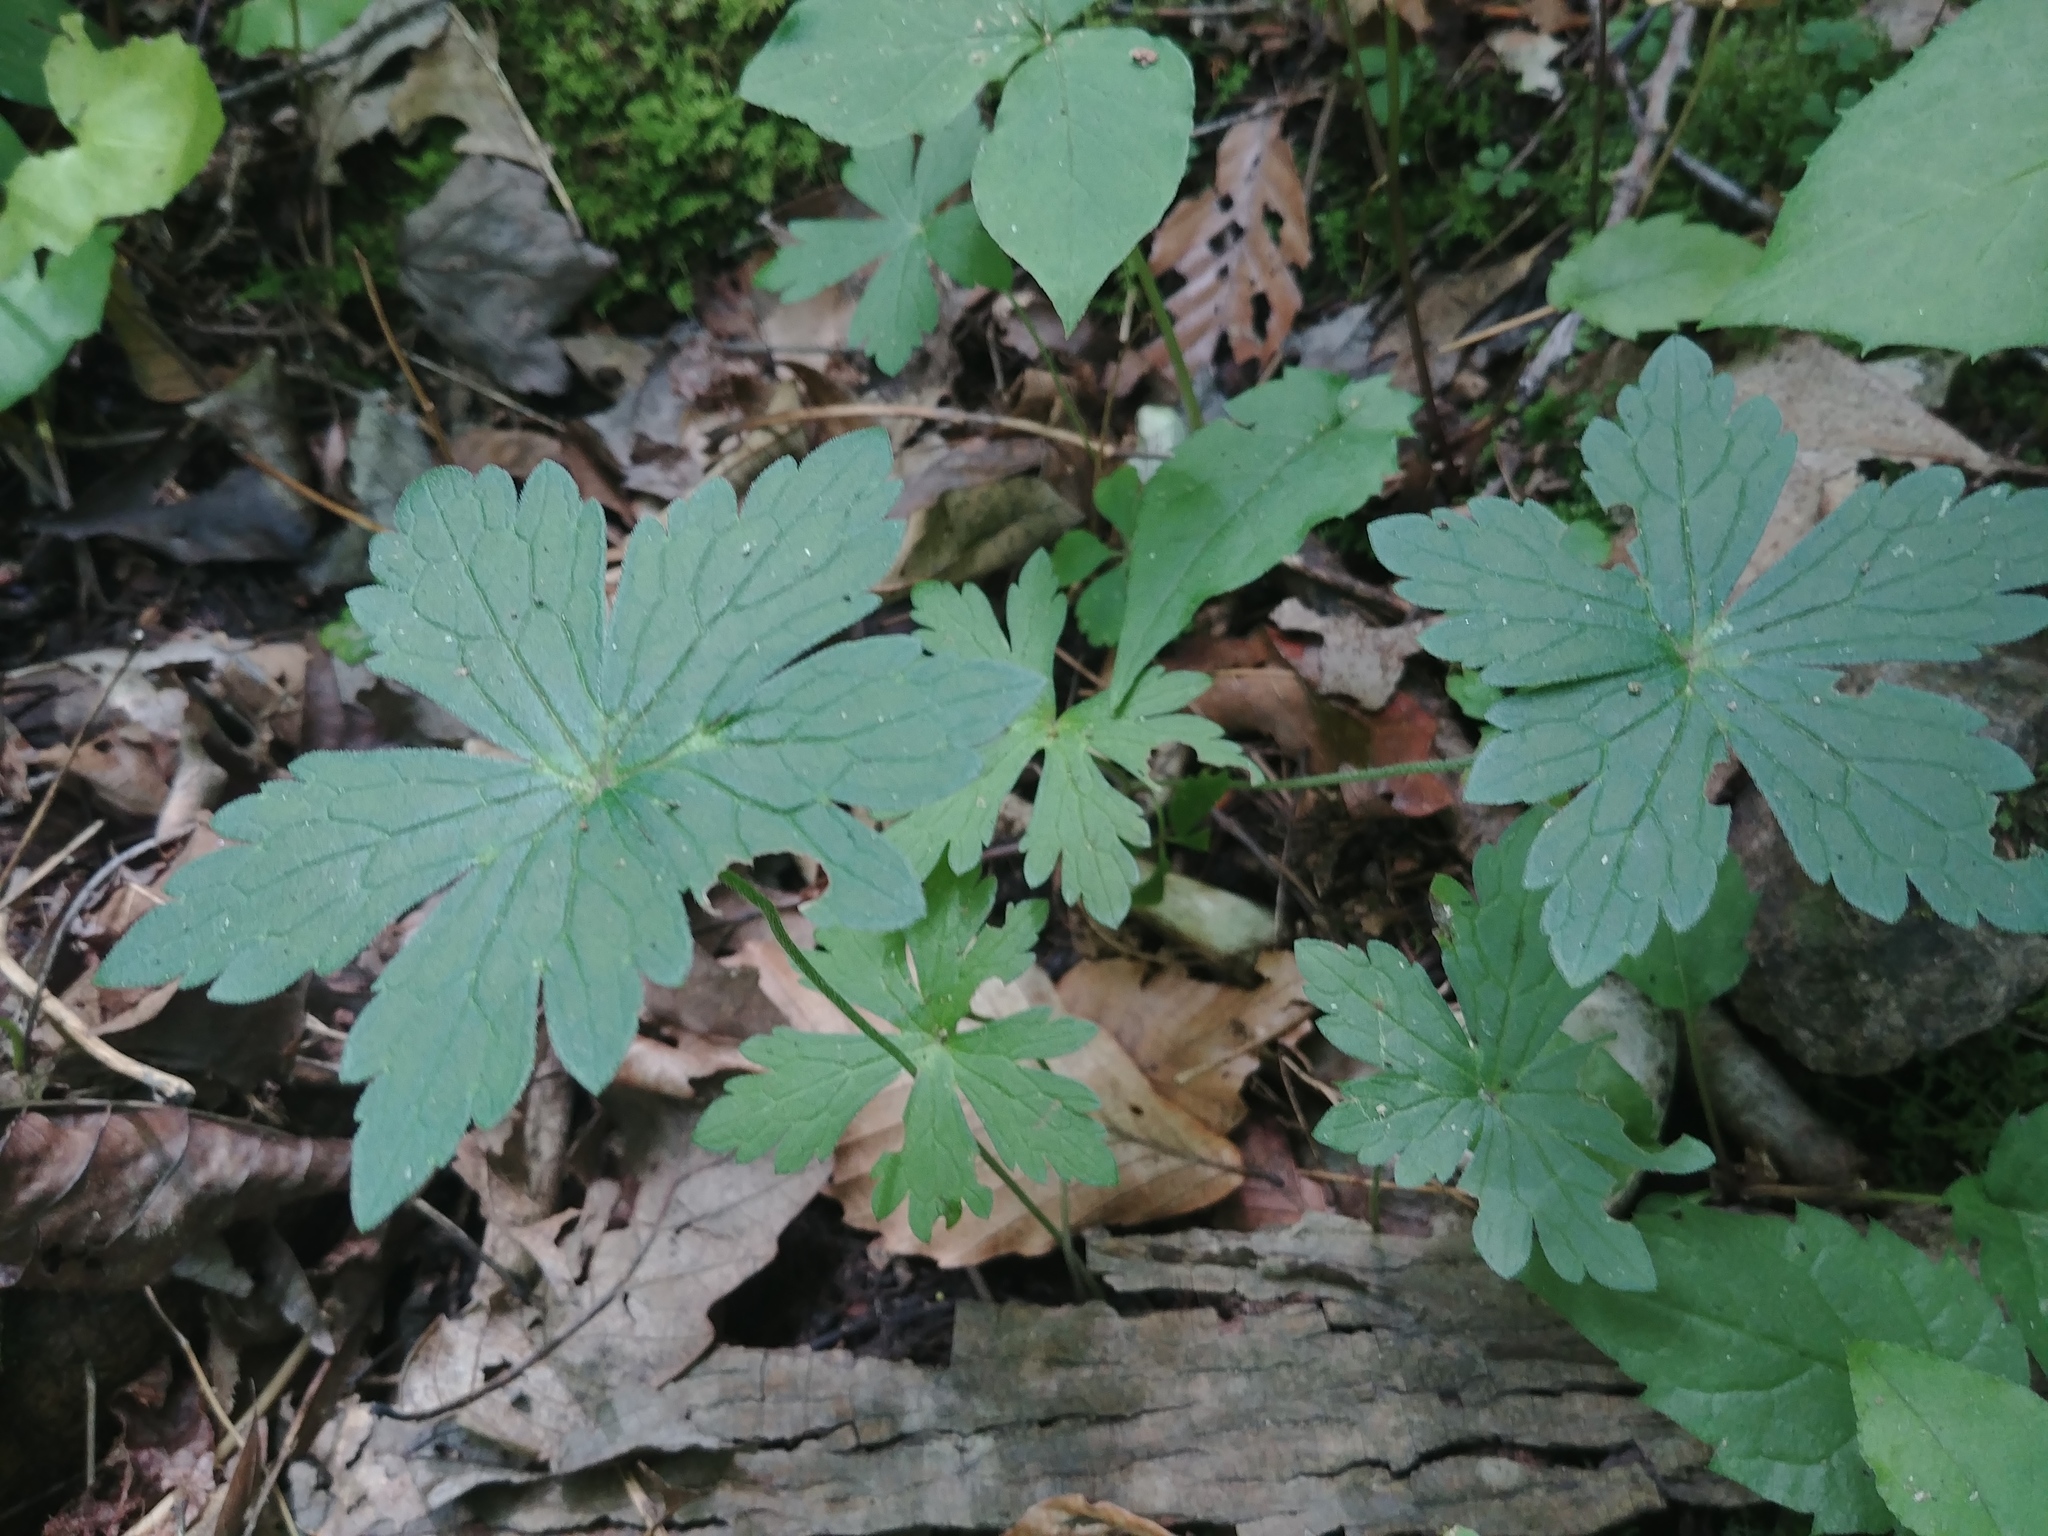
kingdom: Plantae
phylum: Tracheophyta
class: Magnoliopsida
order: Geraniales
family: Geraniaceae
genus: Geranium
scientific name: Geranium maculatum
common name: Spotted geranium
